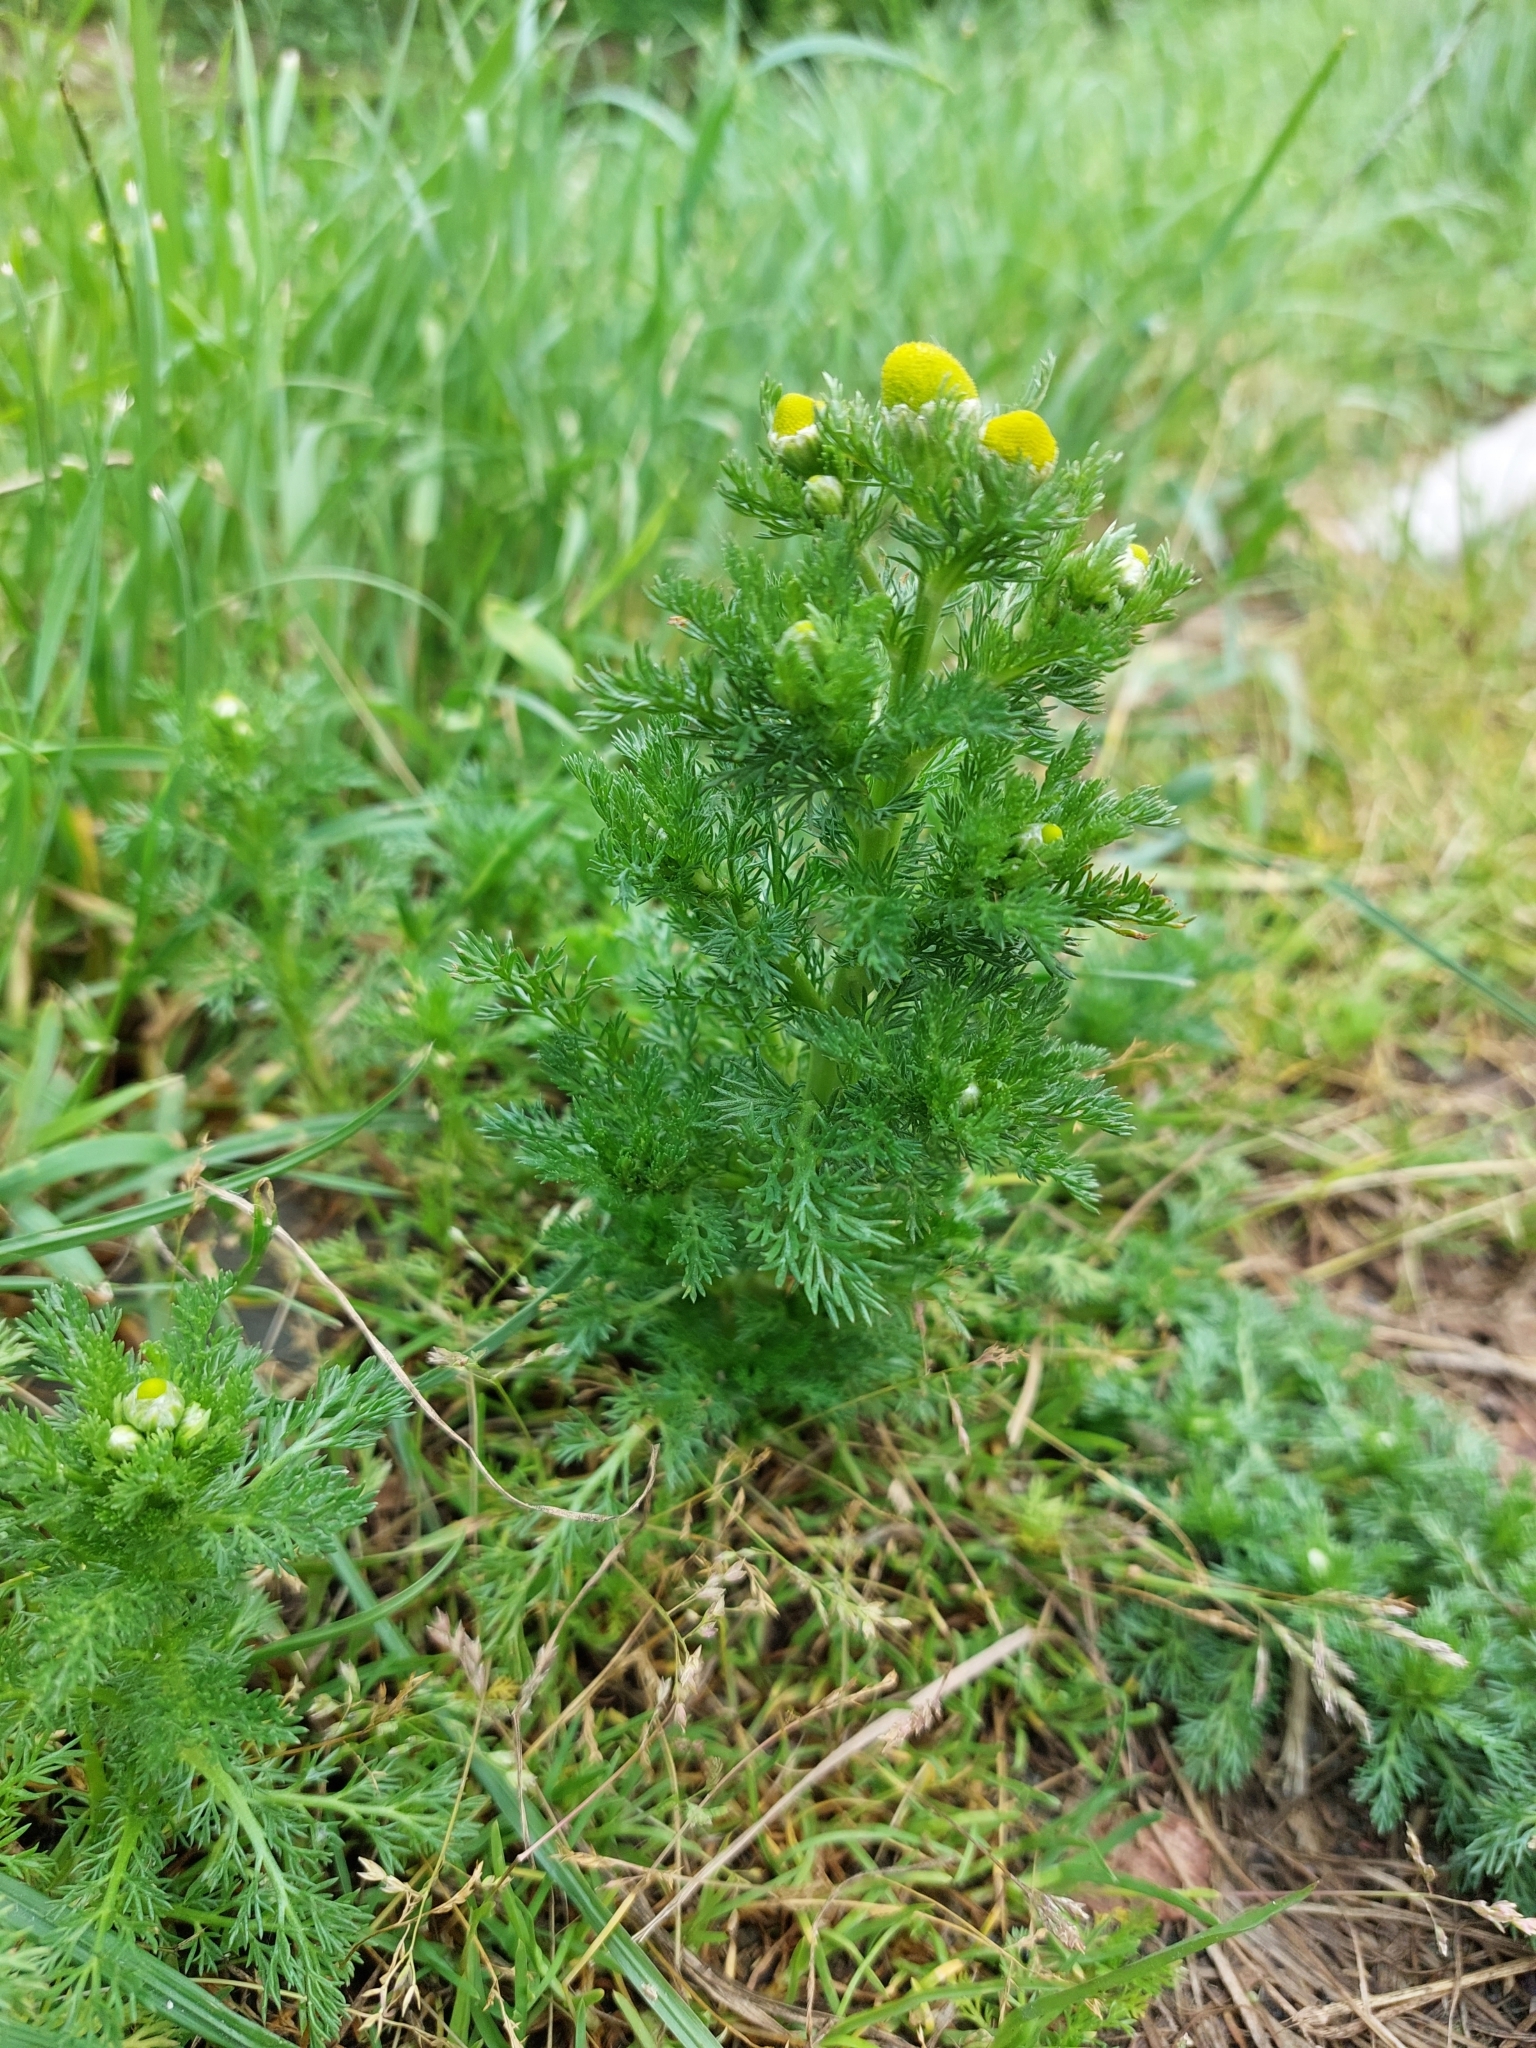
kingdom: Plantae
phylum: Tracheophyta
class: Magnoliopsida
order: Asterales
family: Asteraceae
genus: Matricaria
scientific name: Matricaria discoidea
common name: Disc mayweed
